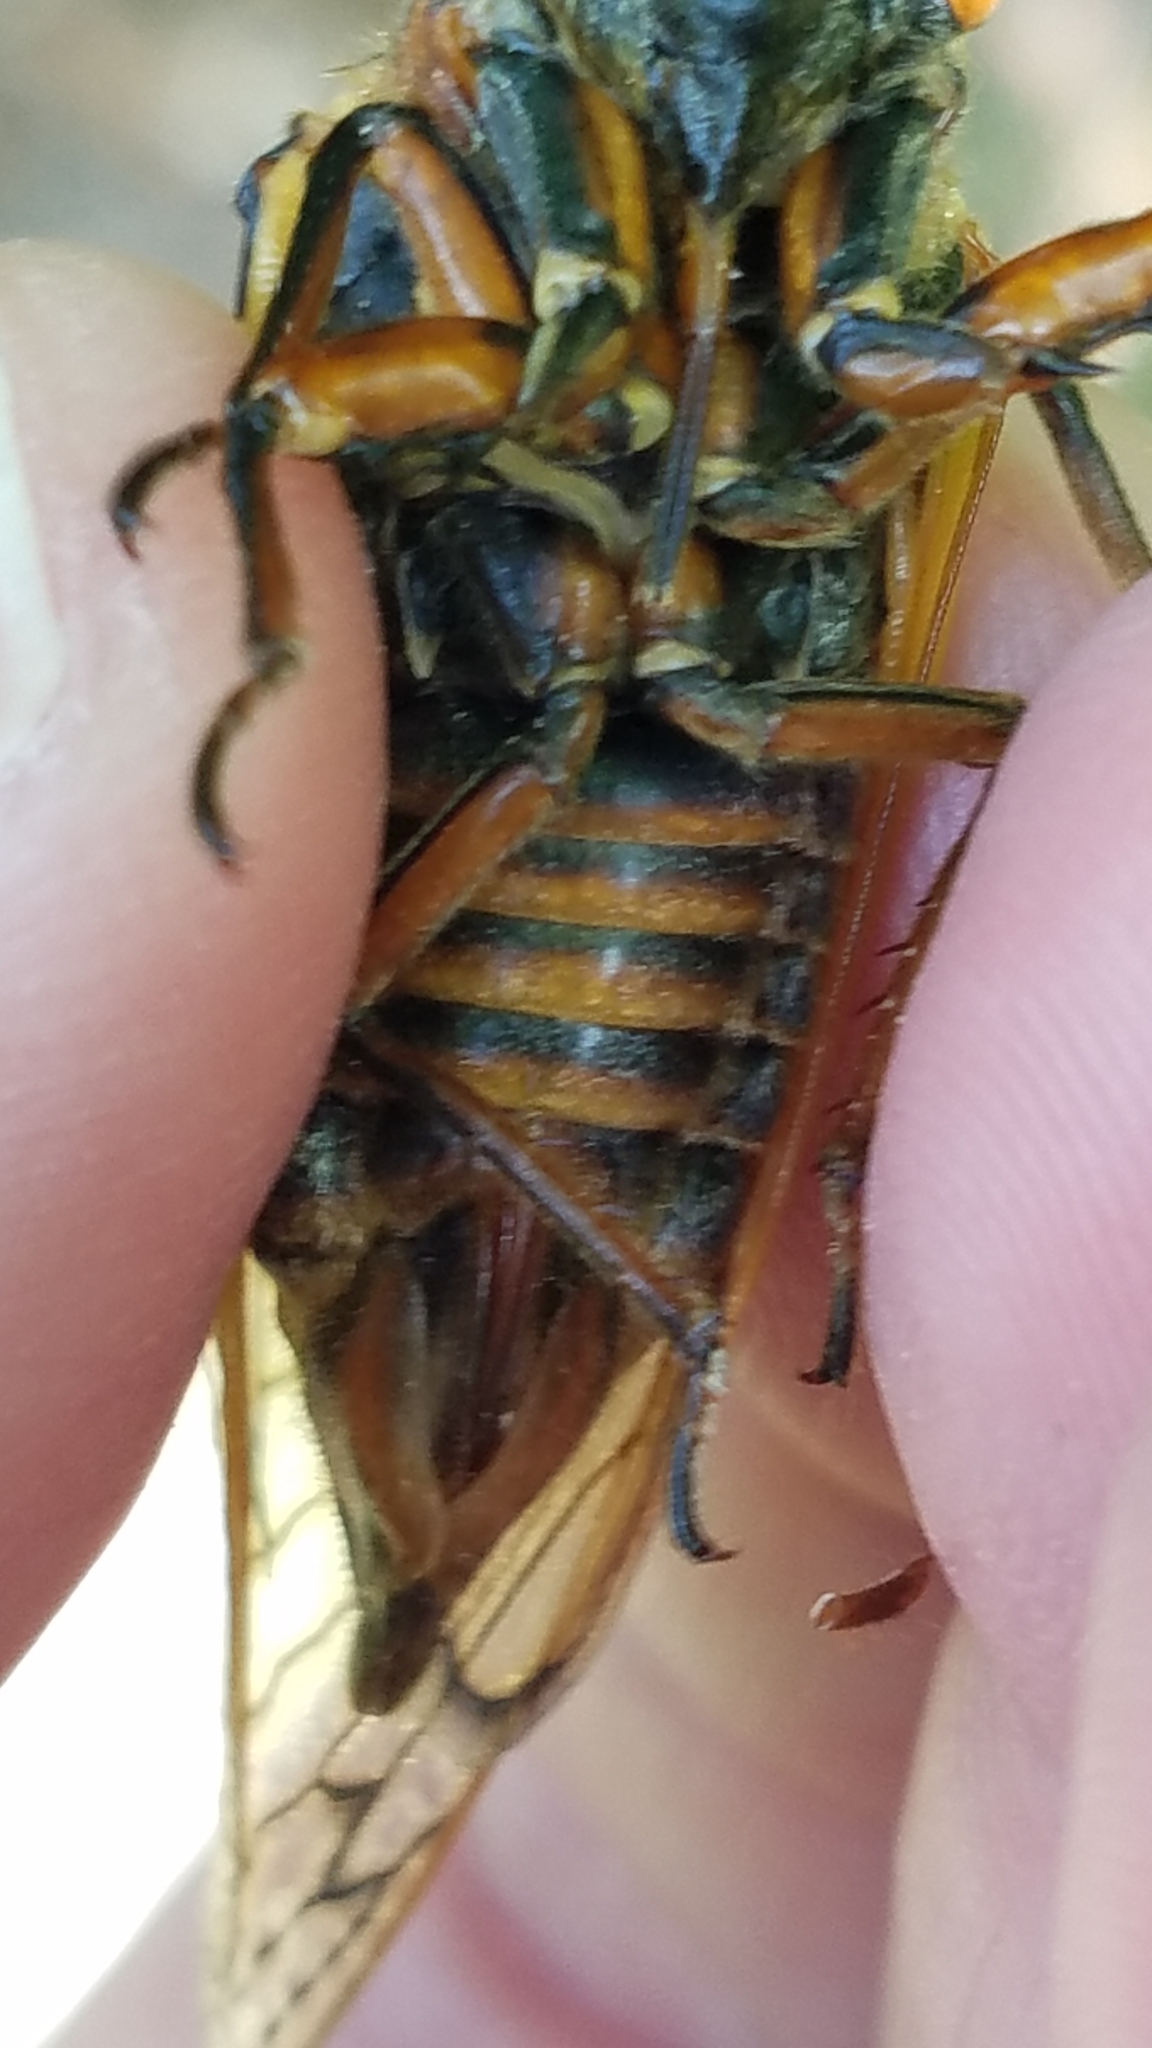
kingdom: Animalia
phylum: Arthropoda
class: Insecta
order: Hemiptera
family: Cicadidae
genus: Magicicada
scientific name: Magicicada septendecim
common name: Periodical cicada
